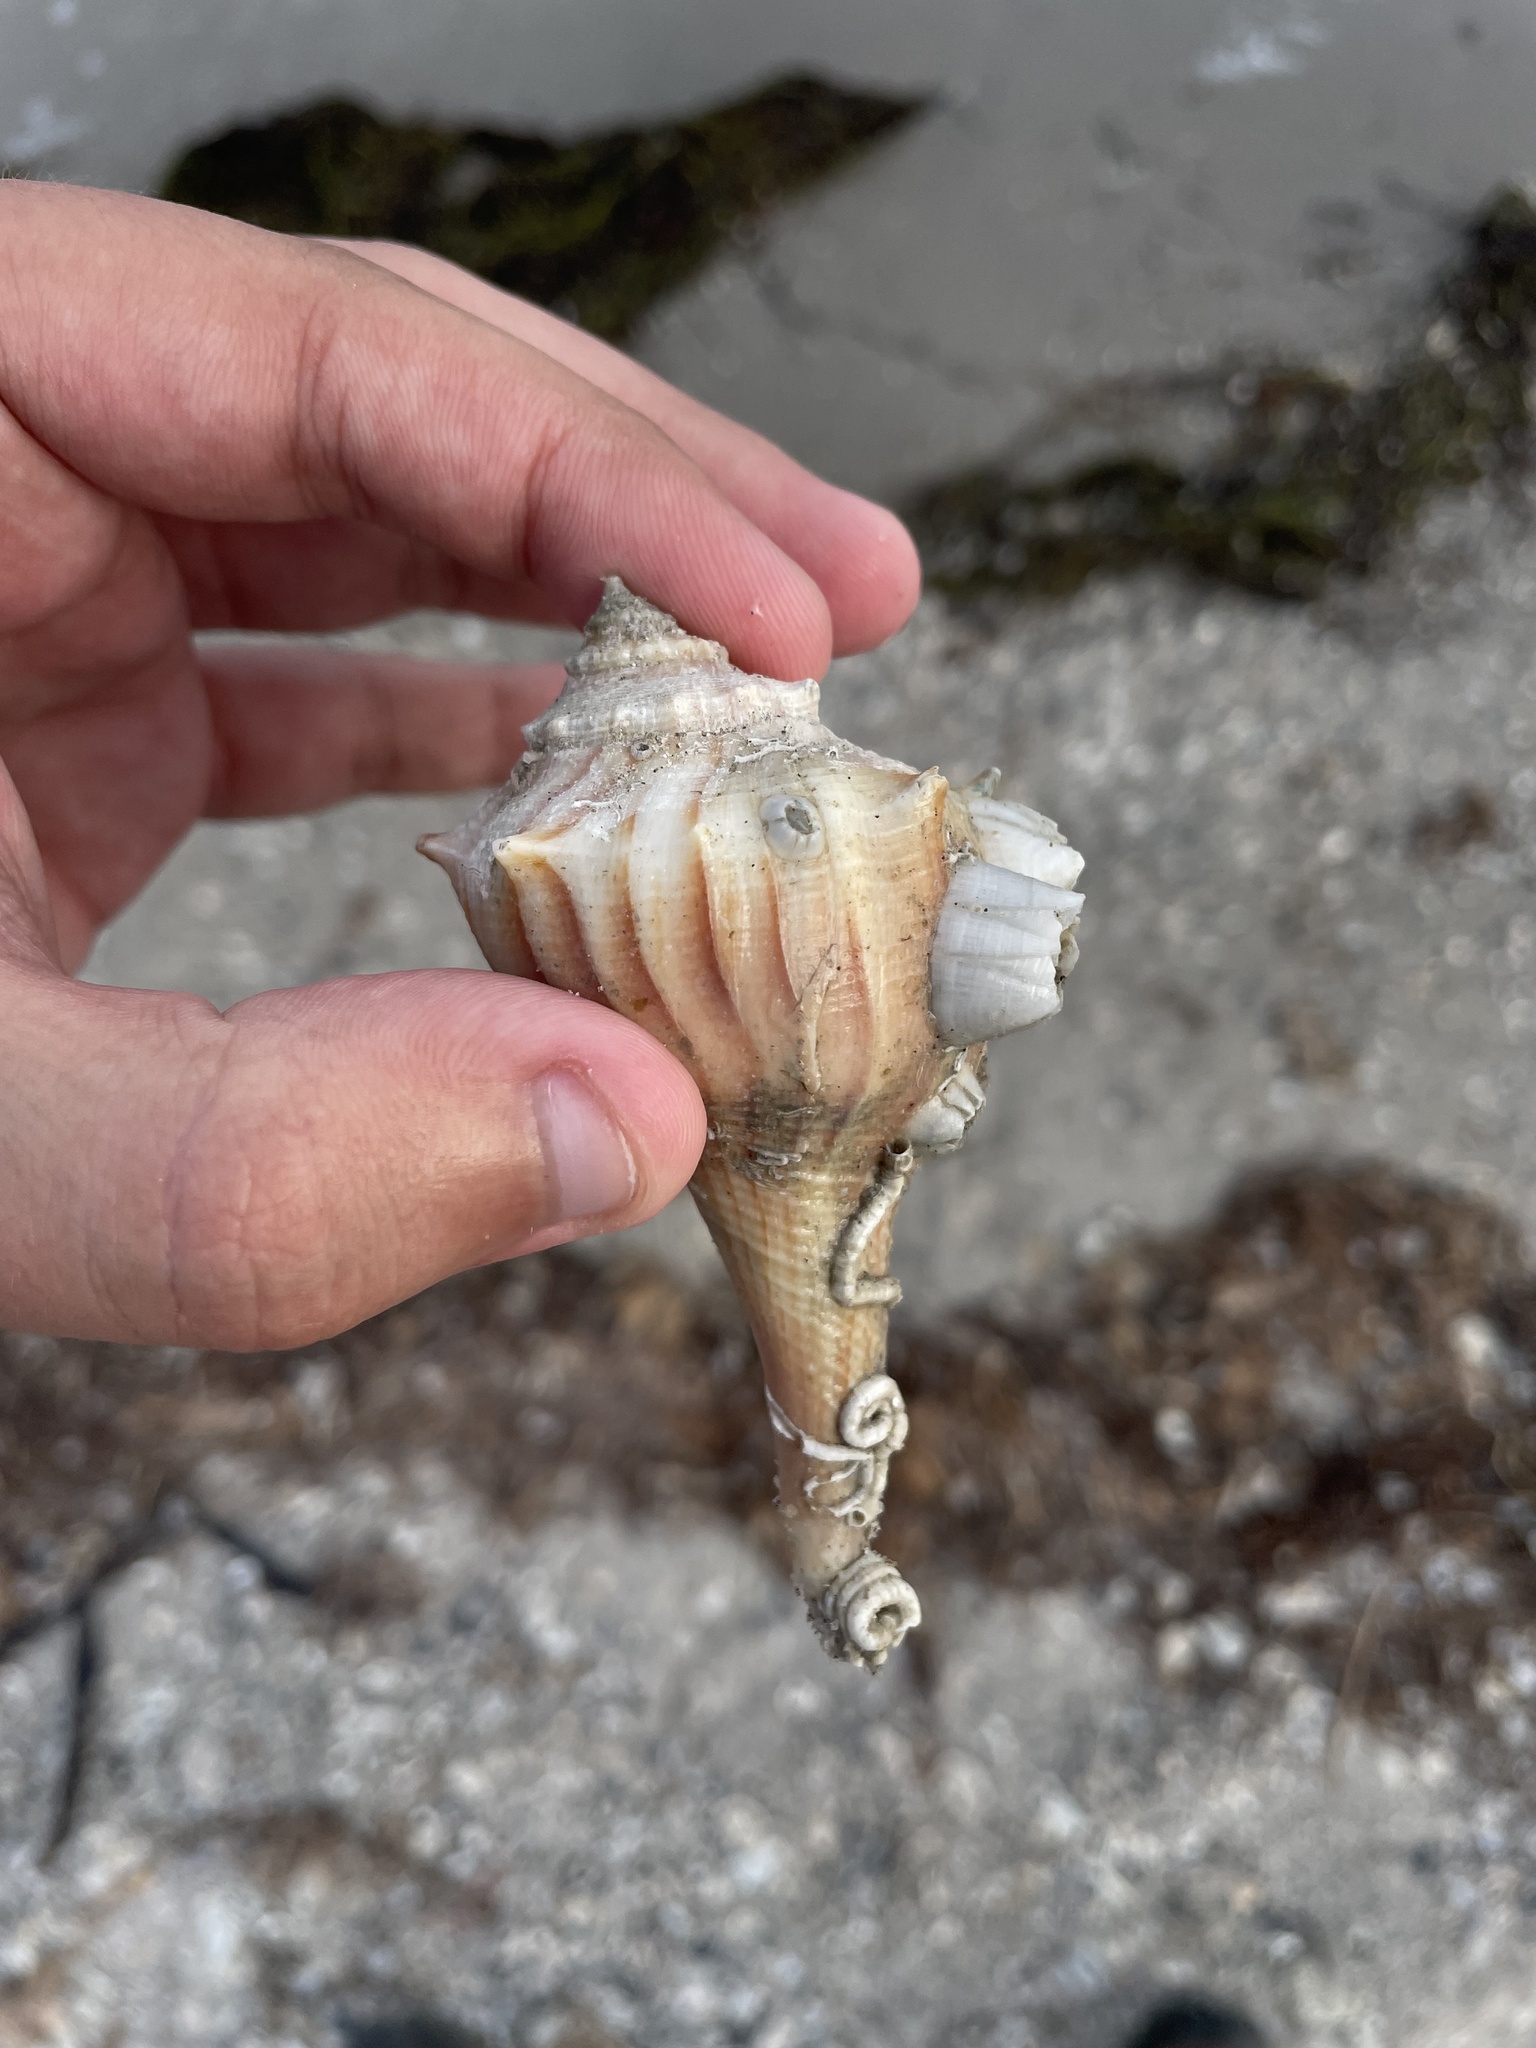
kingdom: Animalia
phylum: Mollusca
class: Gastropoda
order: Neogastropoda
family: Busyconidae
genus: Sinistrofulgur
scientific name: Sinistrofulgur pulleyi
